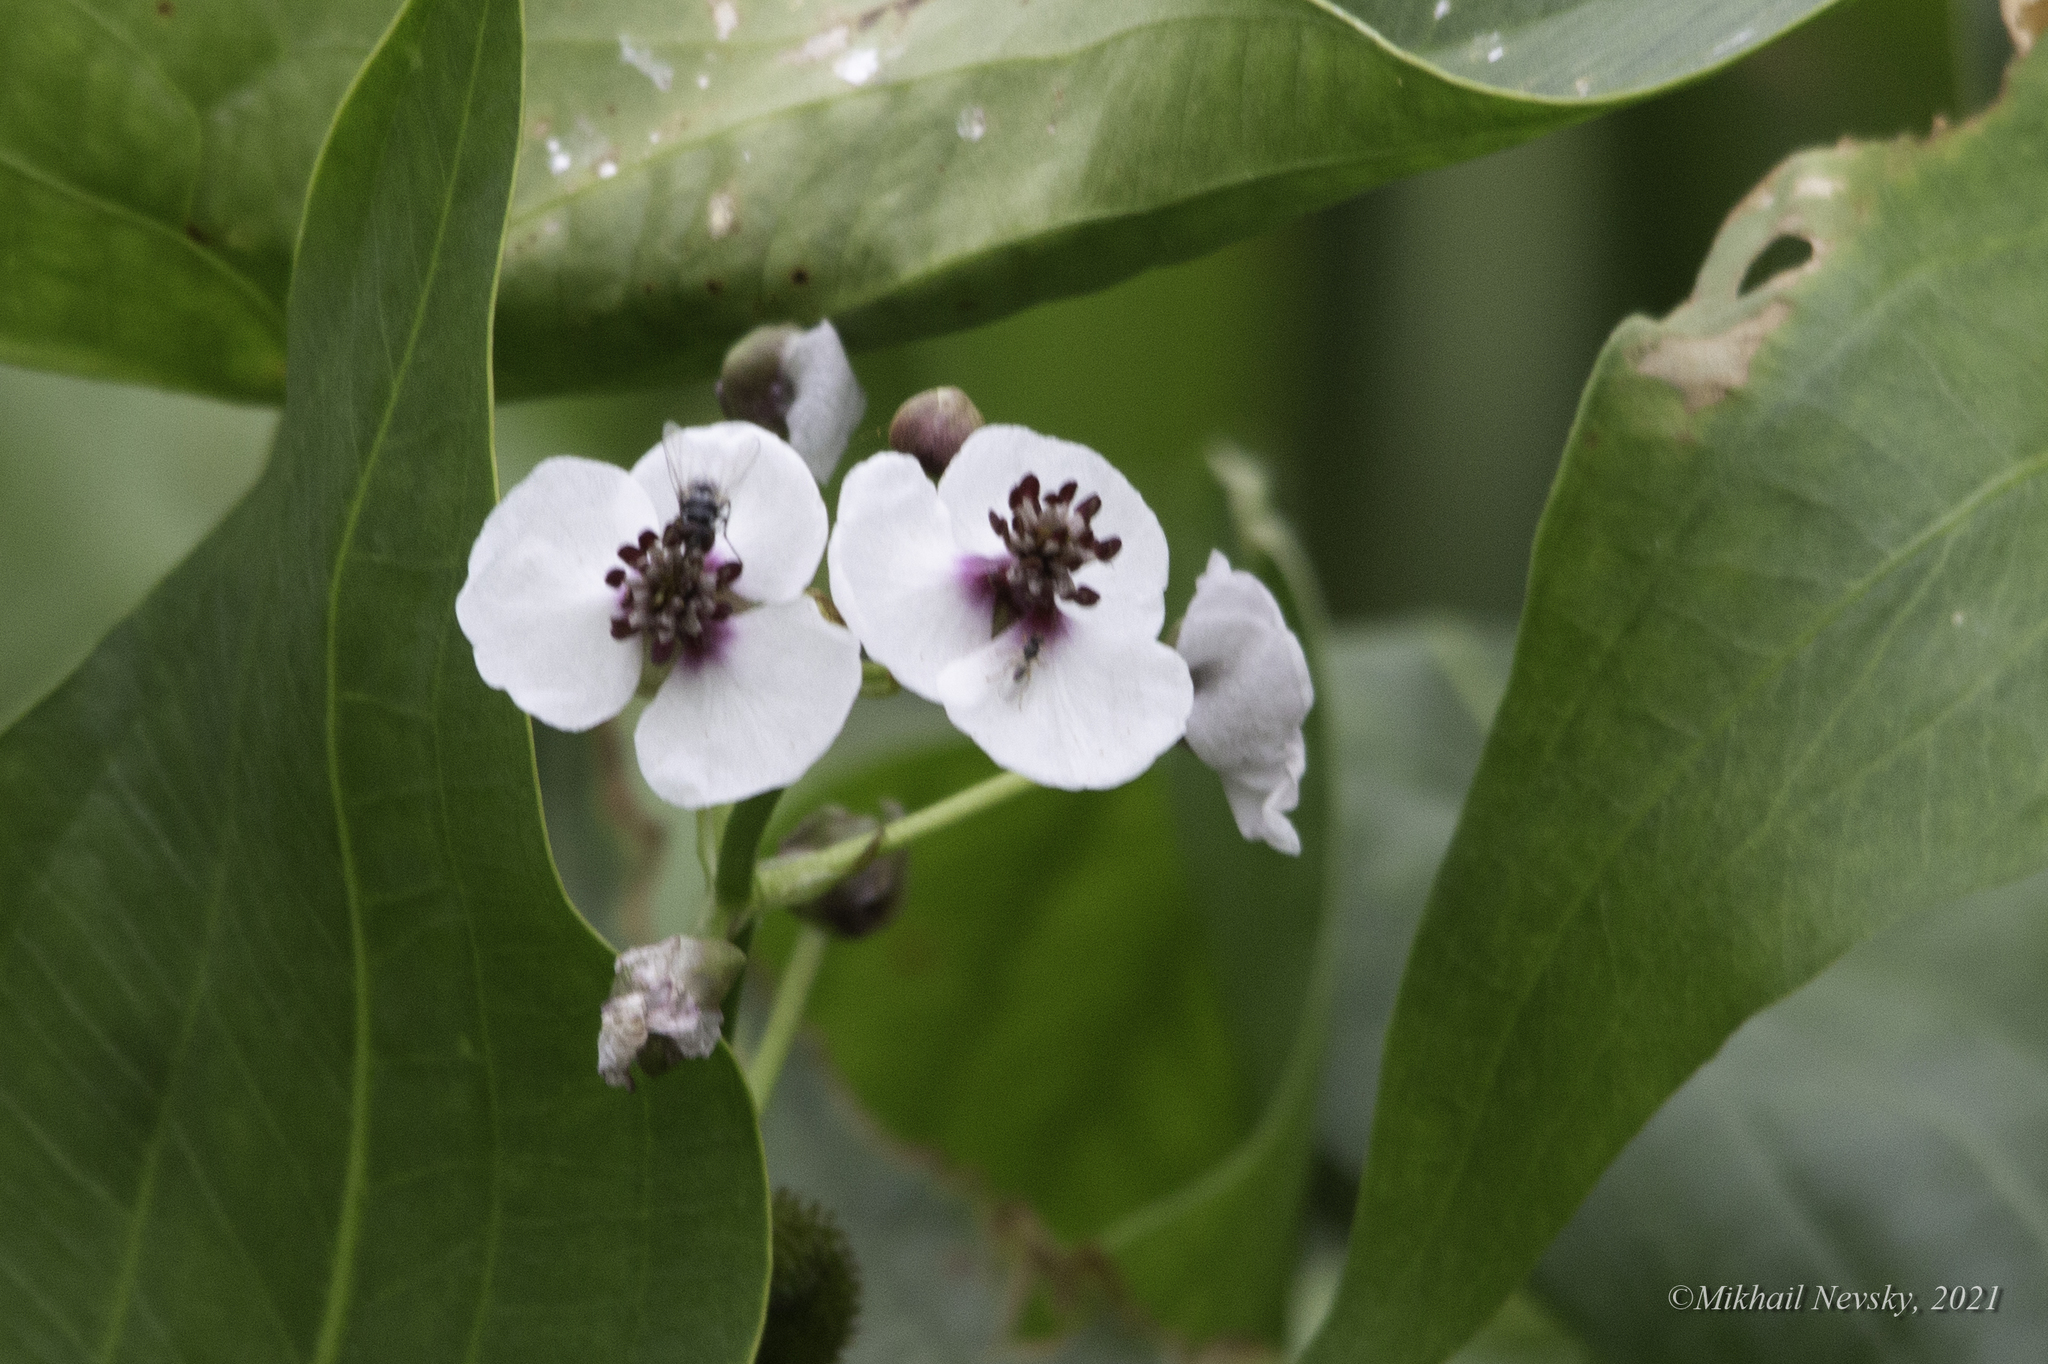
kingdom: Plantae
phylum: Tracheophyta
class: Liliopsida
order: Alismatales
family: Alismataceae
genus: Sagittaria
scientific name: Sagittaria sagittifolia
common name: Arrowhead
